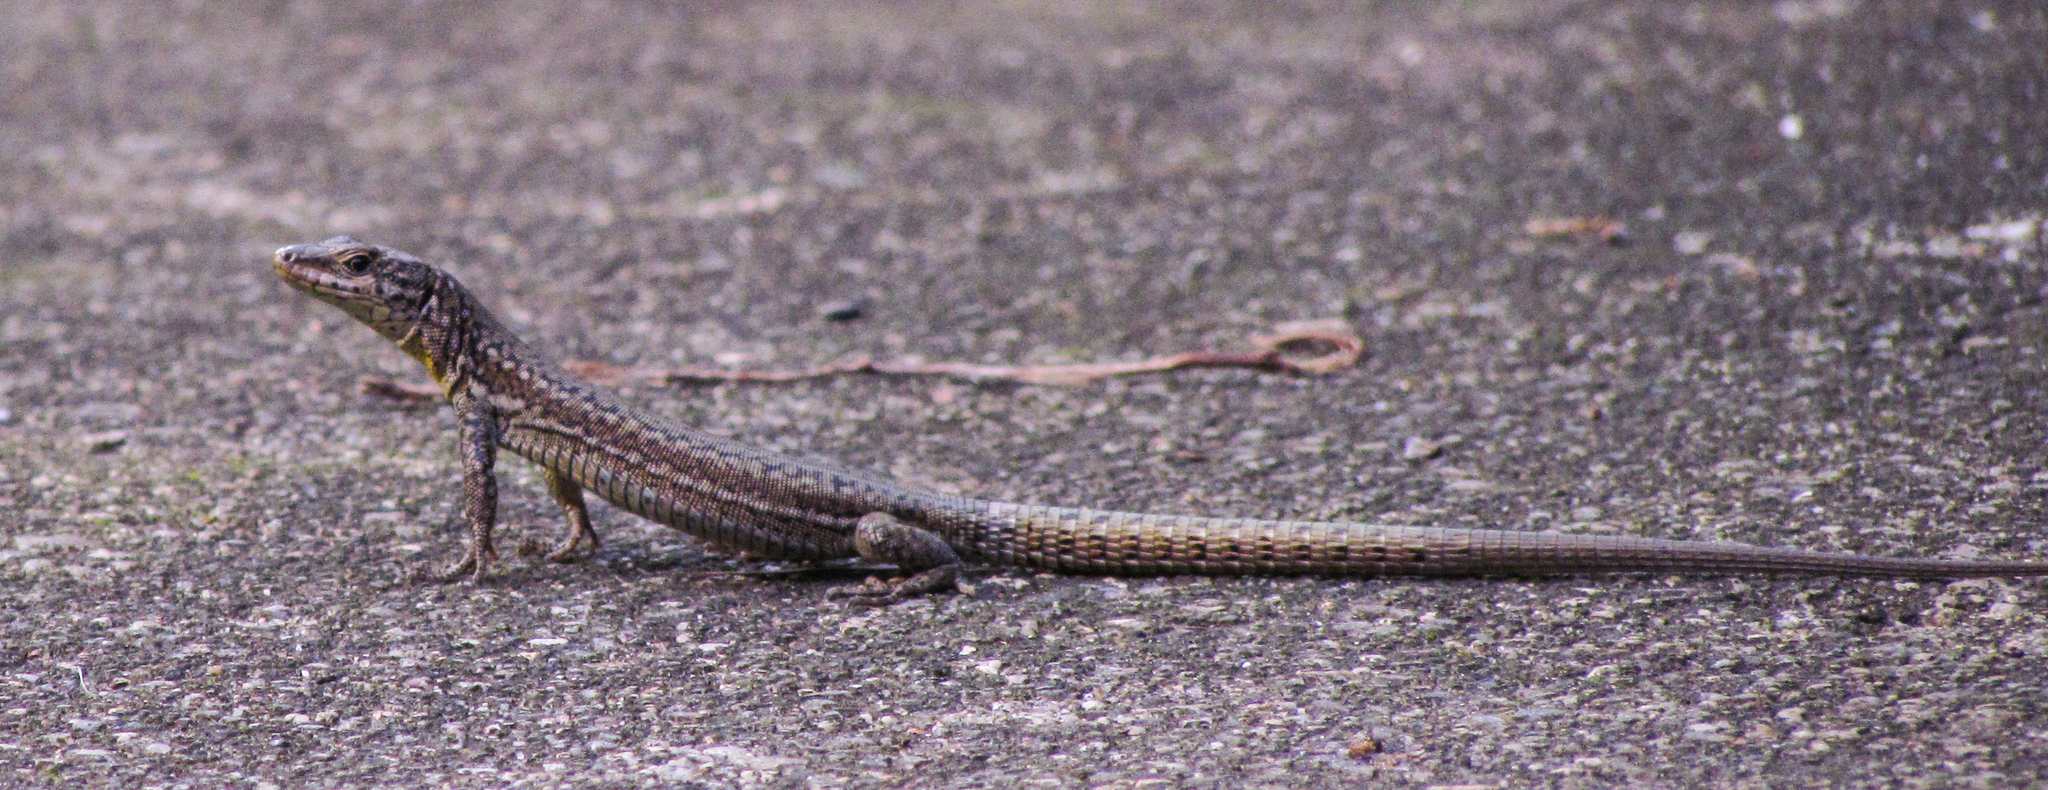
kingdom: Animalia
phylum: Chordata
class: Squamata
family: Lacertidae
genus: Podarcis
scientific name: Podarcis virescens
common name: Geniez’s wall lizard
